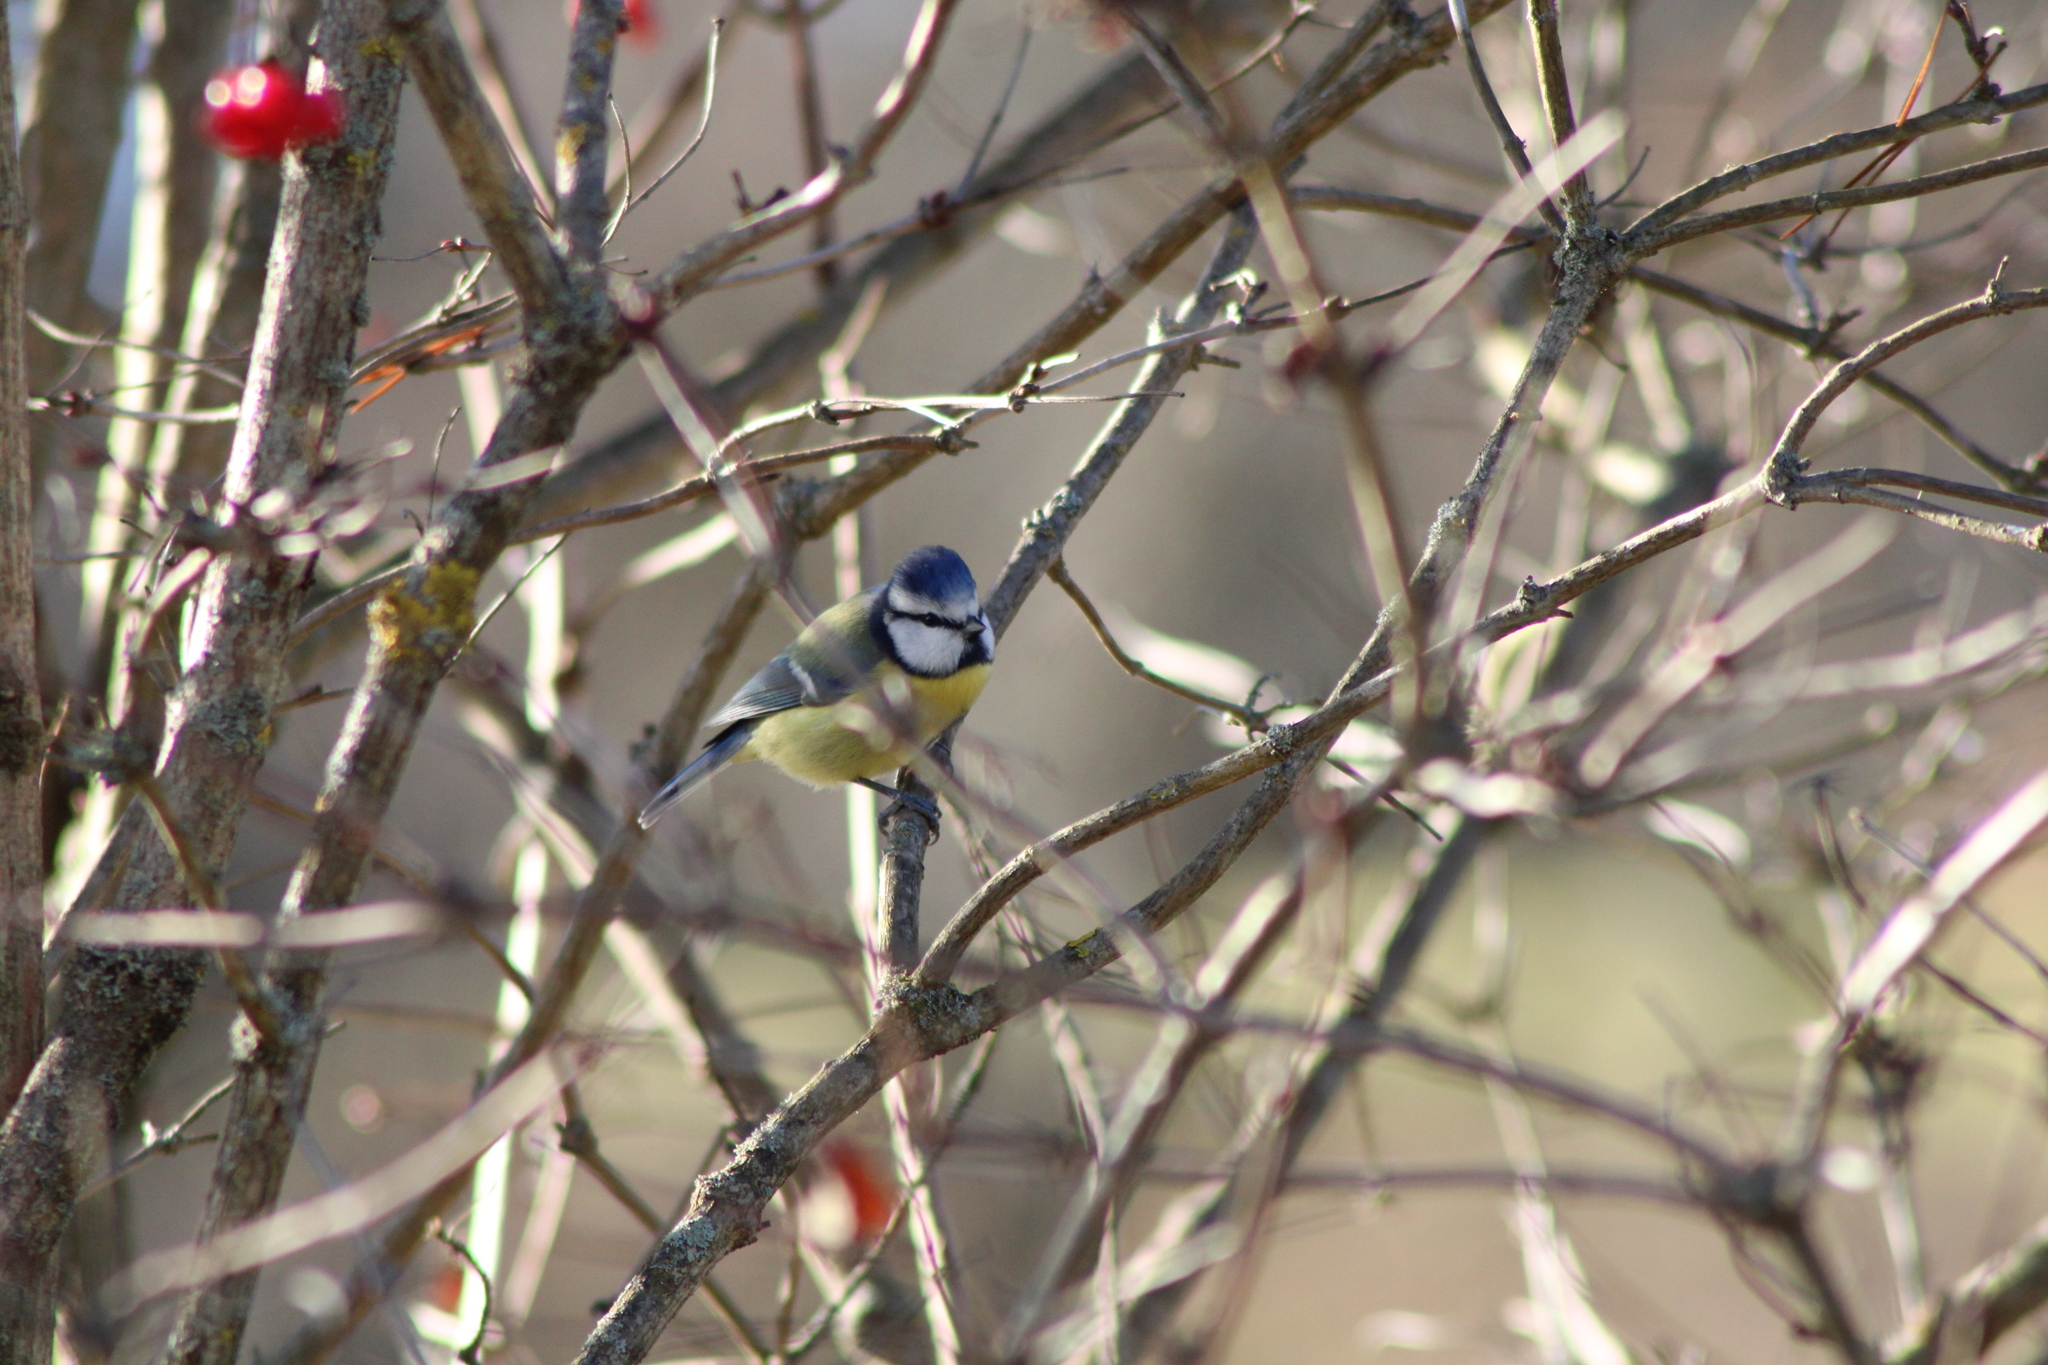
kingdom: Animalia
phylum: Chordata
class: Aves
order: Passeriformes
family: Paridae
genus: Cyanistes
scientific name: Cyanistes caeruleus
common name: Eurasian blue tit
